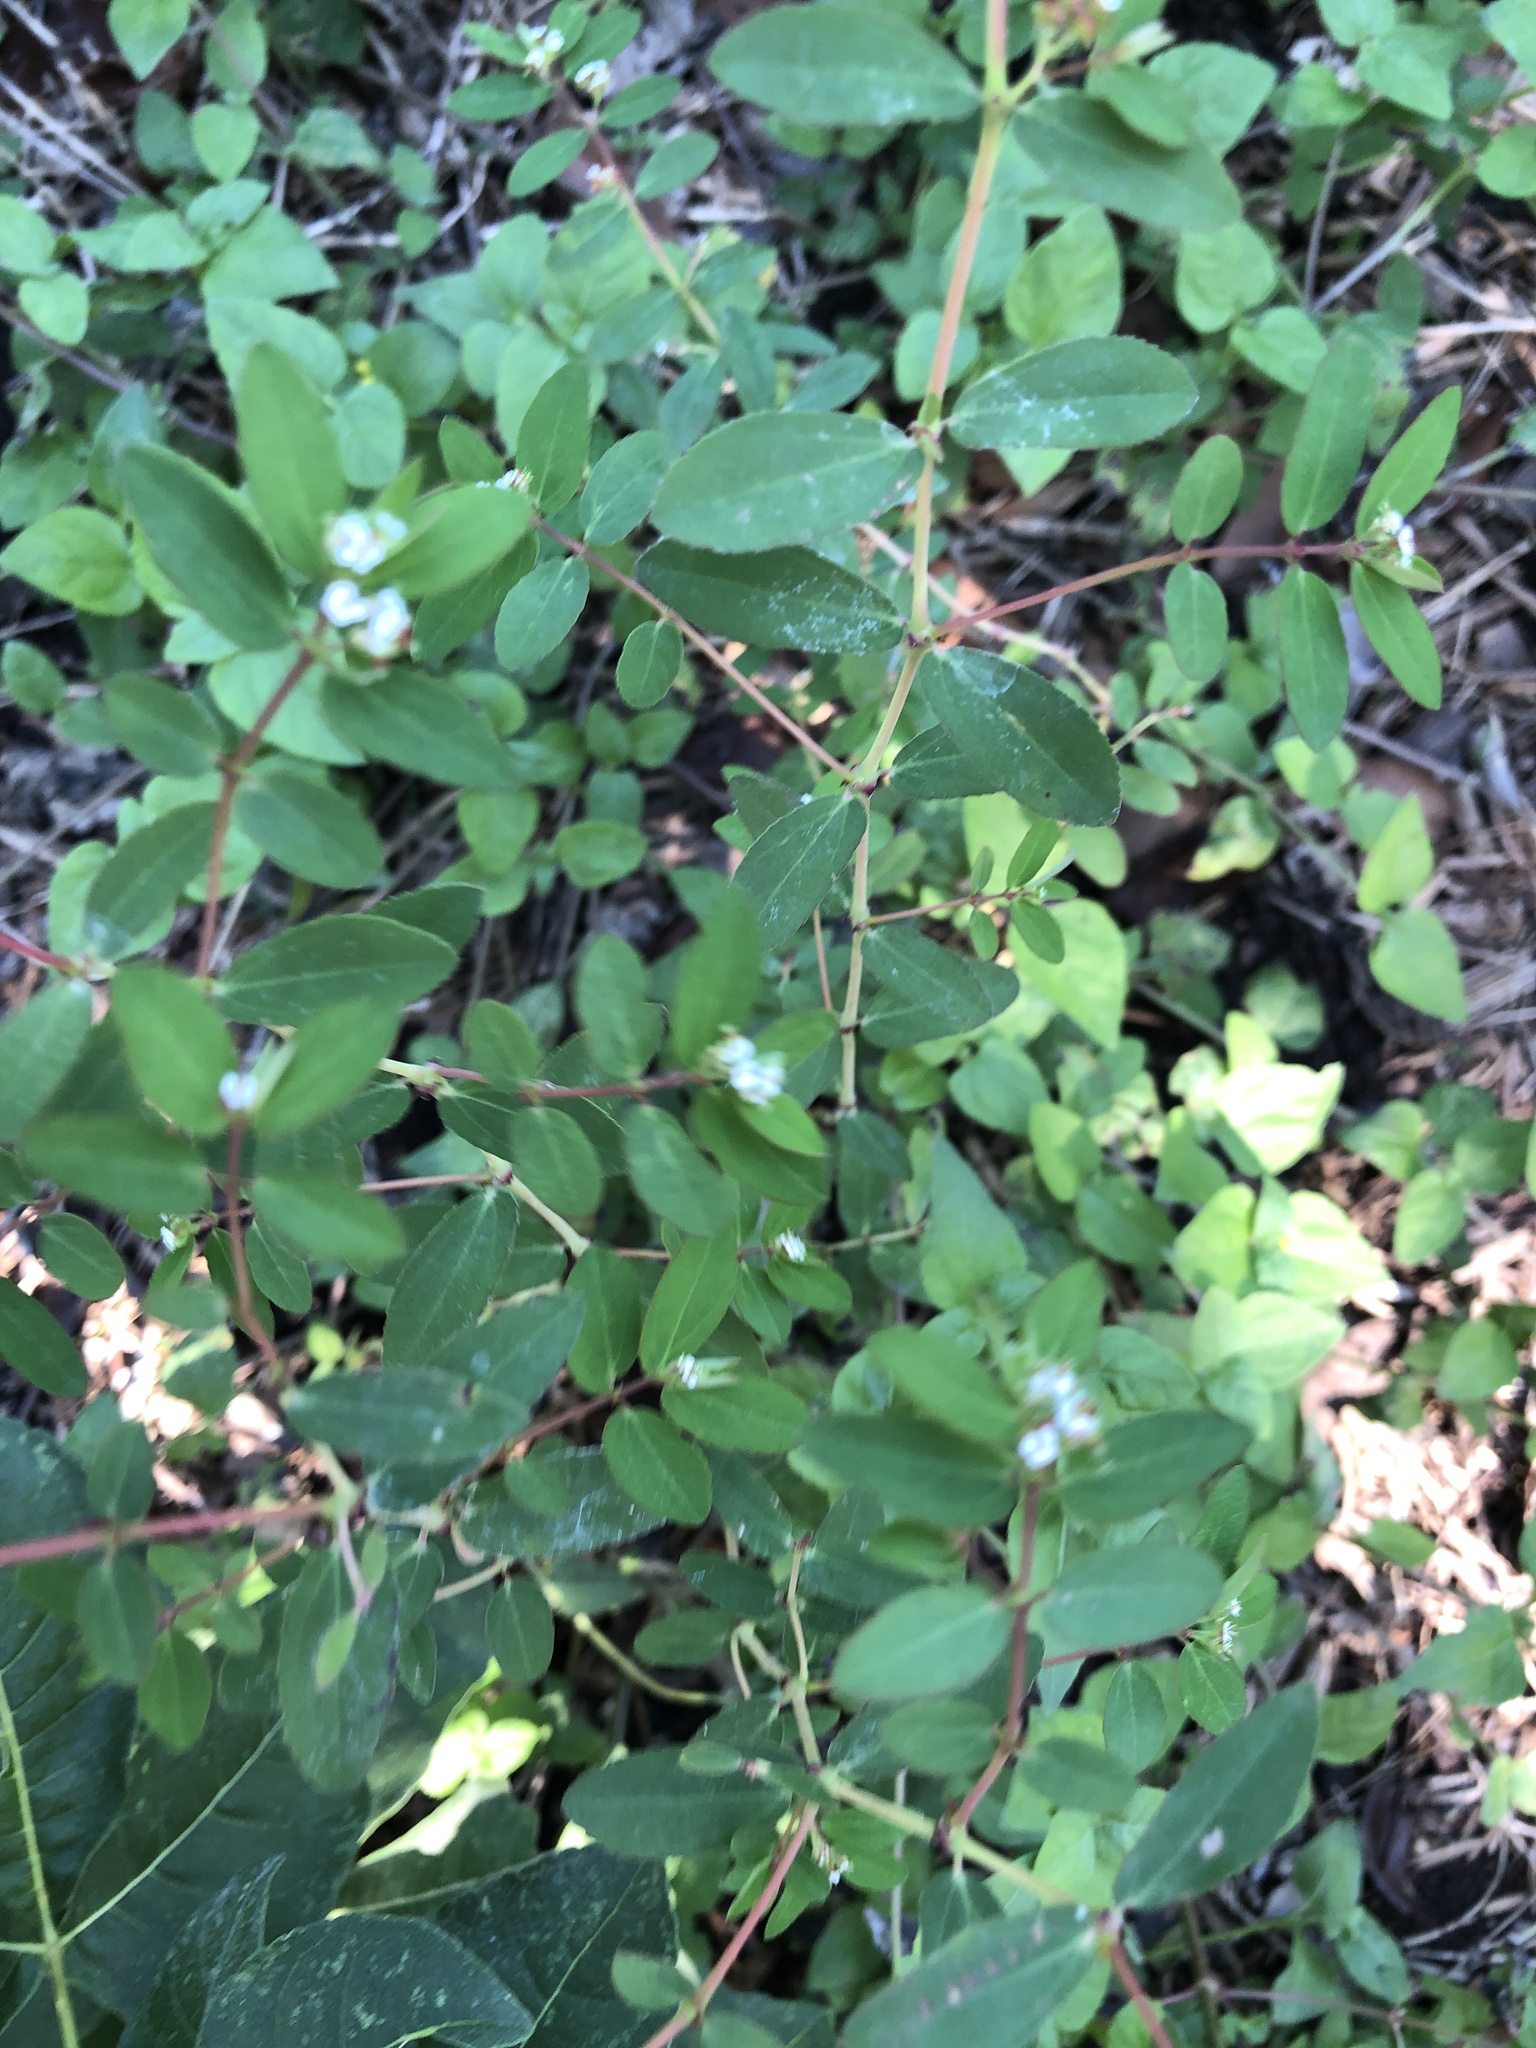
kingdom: Plantae
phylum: Tracheophyta
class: Magnoliopsida
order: Malpighiales
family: Euphorbiaceae
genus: Euphorbia
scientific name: Euphorbia hypericifolia
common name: Graceful sandmat
